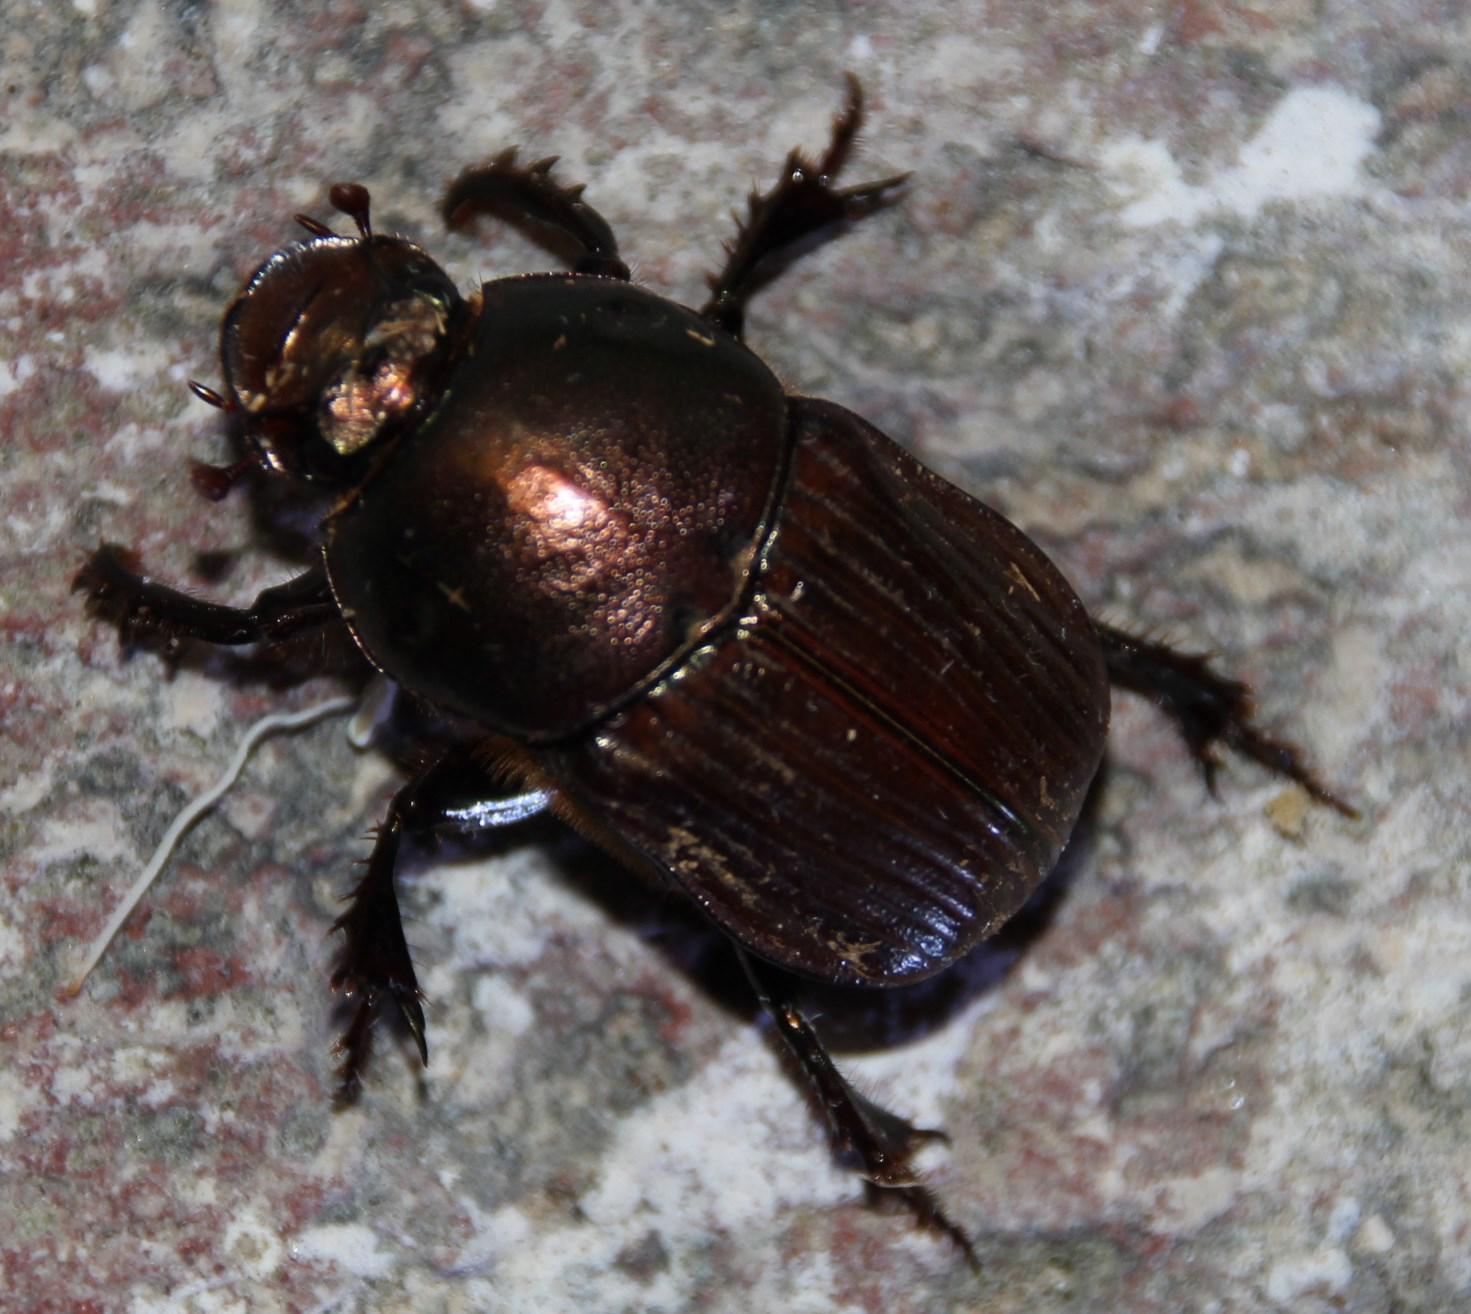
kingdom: Animalia
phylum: Arthropoda
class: Insecta
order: Coleoptera
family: Scarabaeidae
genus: Onitis
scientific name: Onitis aygulus
